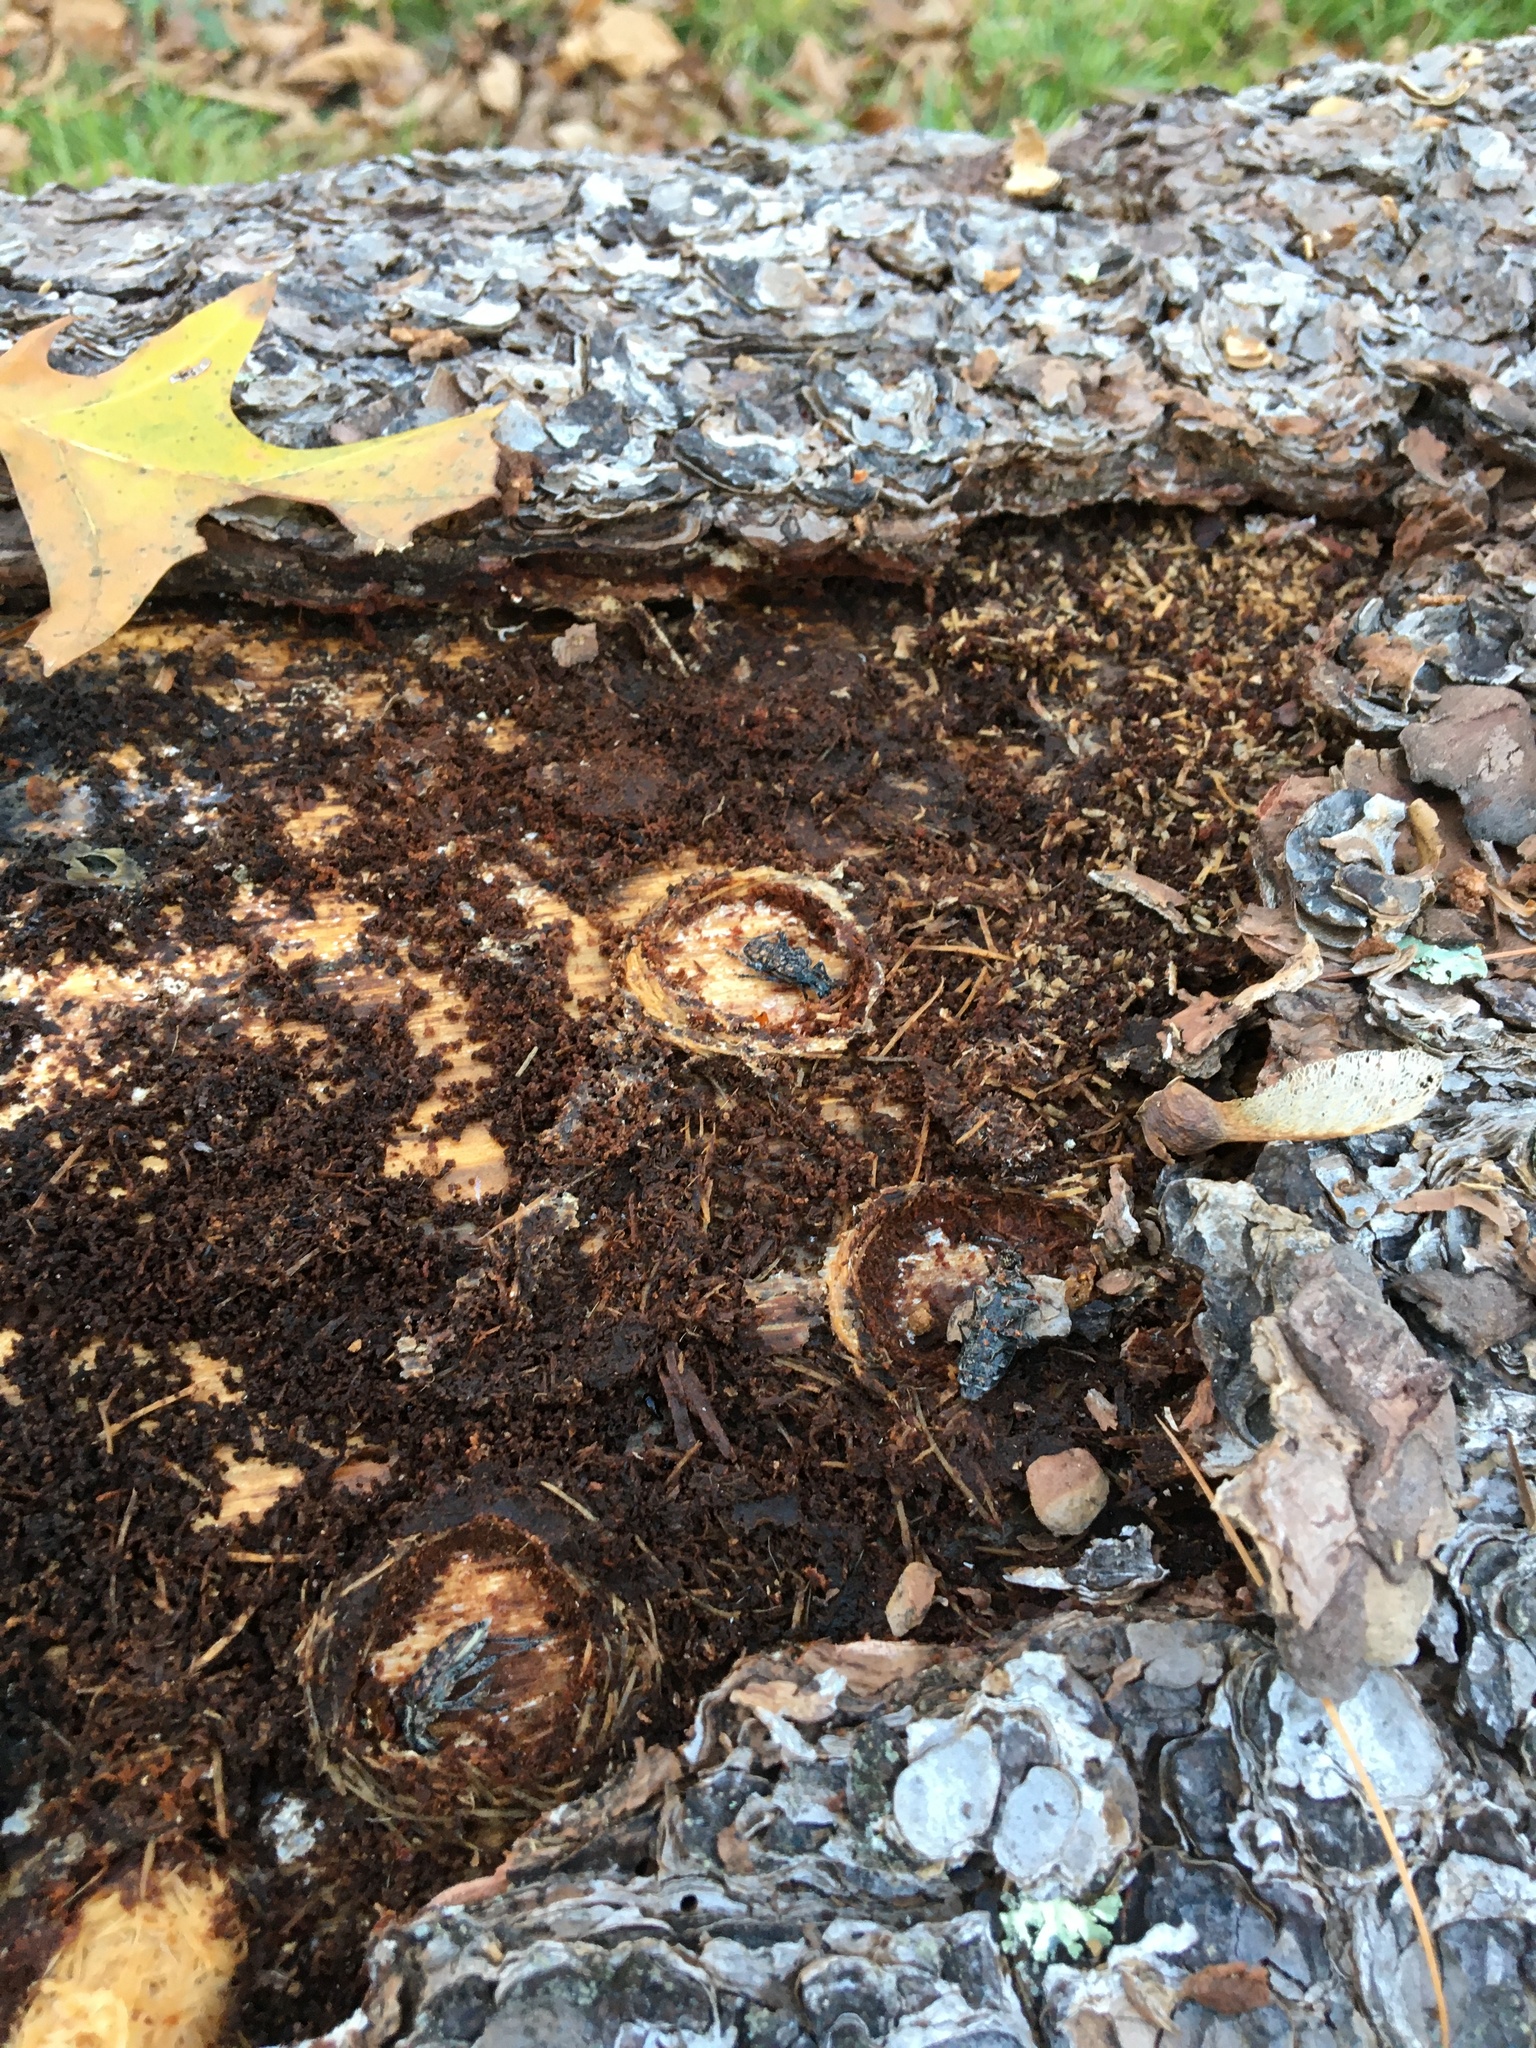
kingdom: Animalia
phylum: Arthropoda
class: Insecta
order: Coleoptera
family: Cerambycidae
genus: Rhagium
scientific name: Rhagium inquisitor
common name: Ribbed pine borer
